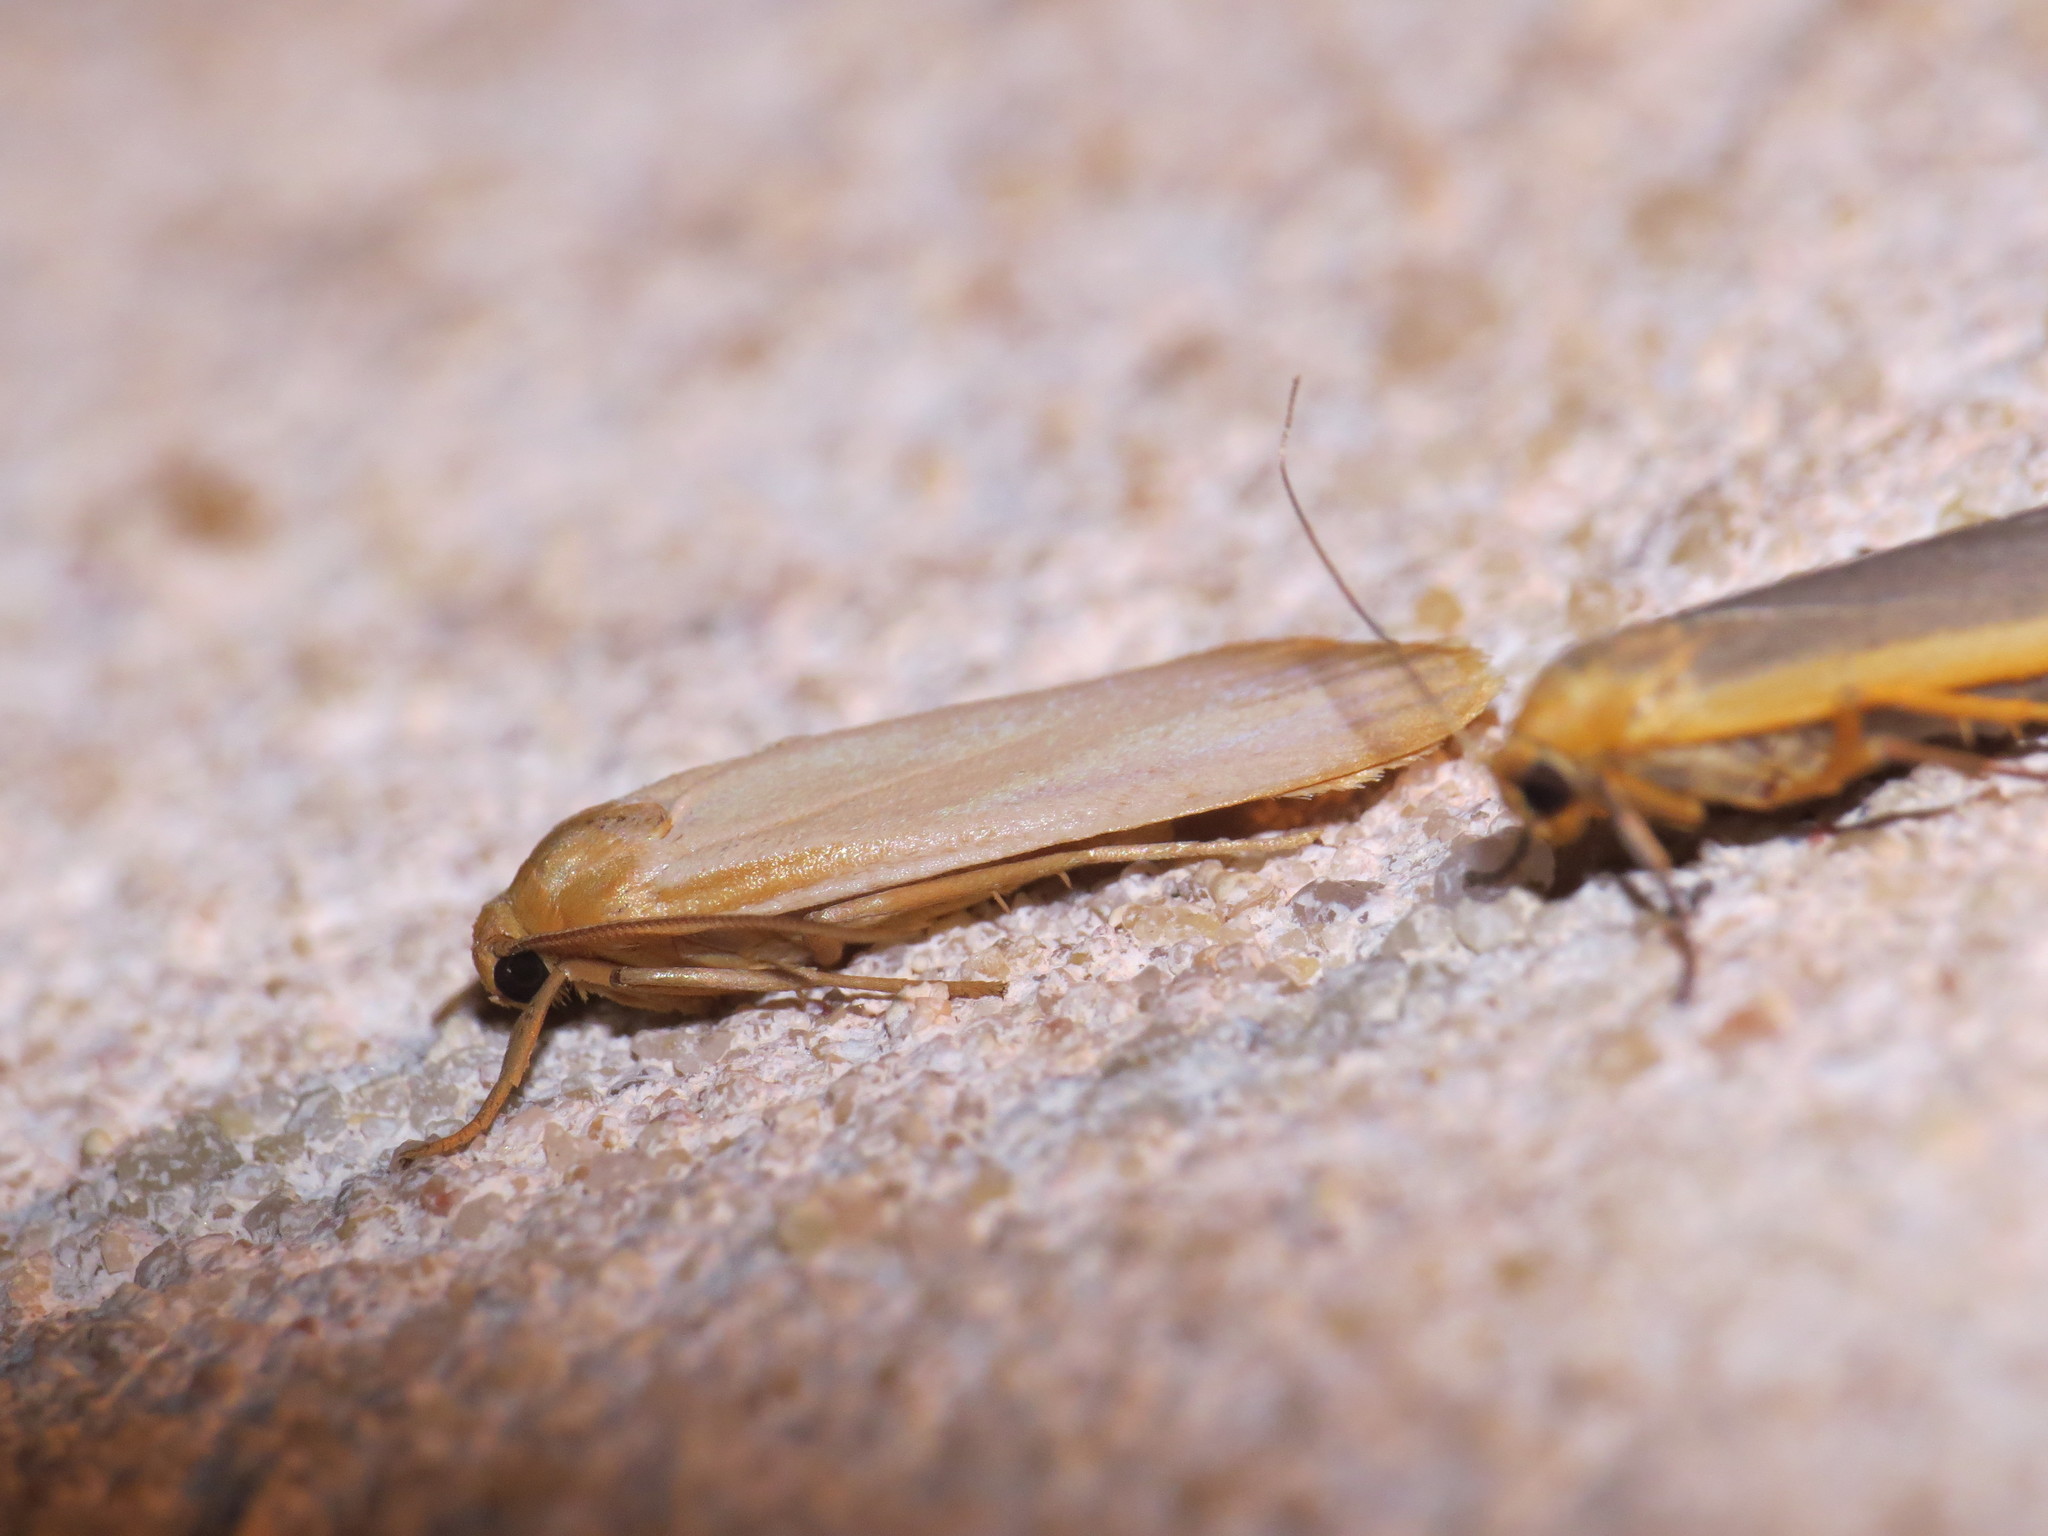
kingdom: Animalia
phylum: Arthropoda
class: Insecta
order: Lepidoptera
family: Erebidae
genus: Katha
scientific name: Katha depressa
